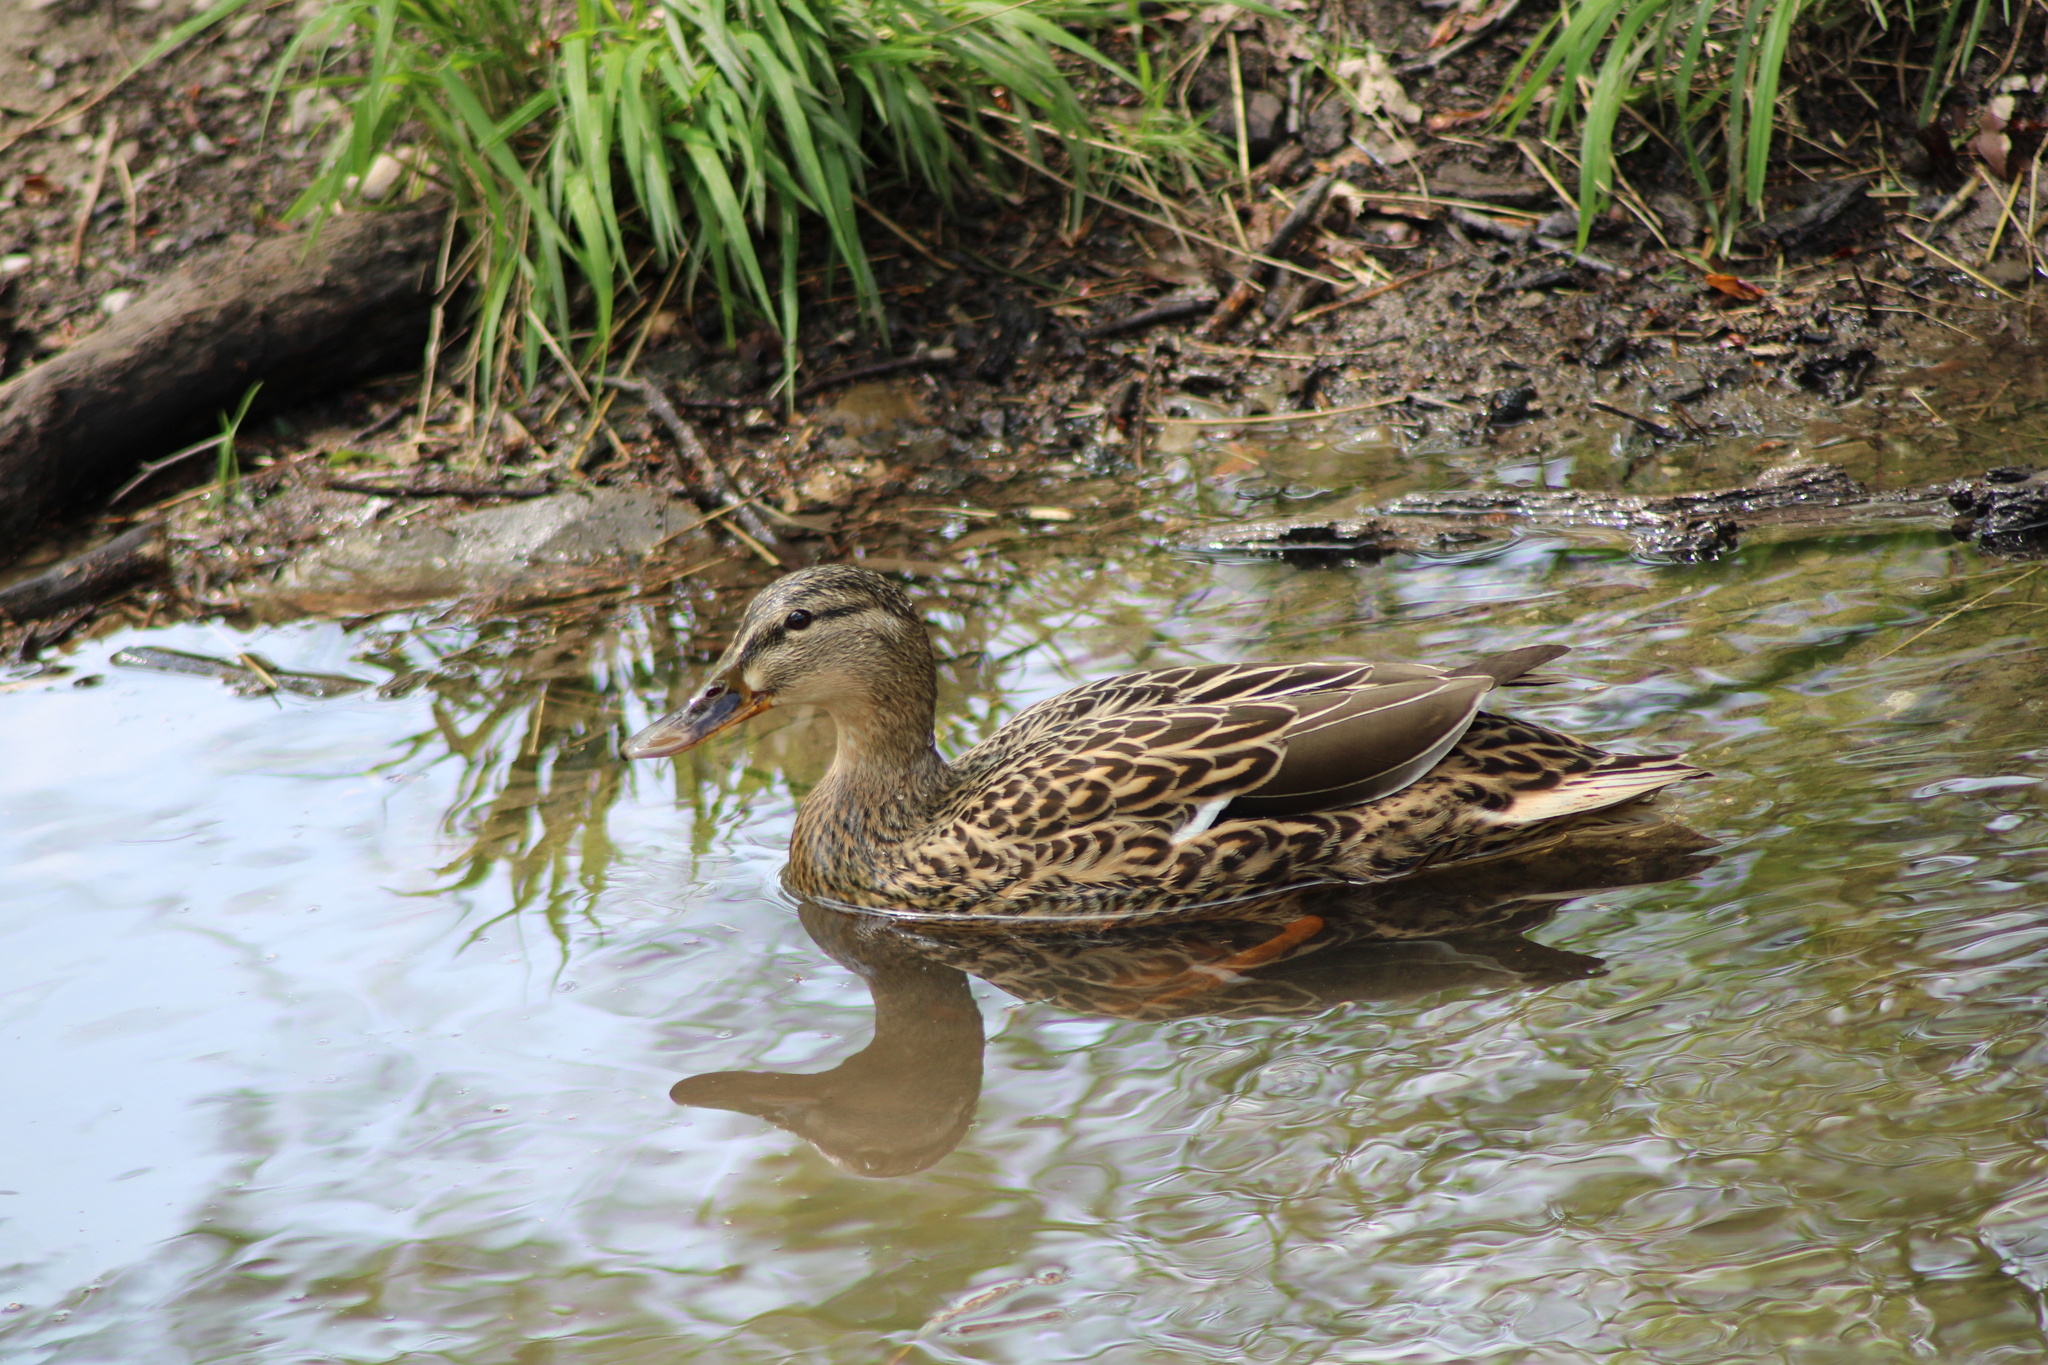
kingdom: Animalia
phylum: Chordata
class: Aves
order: Anseriformes
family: Anatidae
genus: Anas
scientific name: Anas platyrhynchos
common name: Mallard
